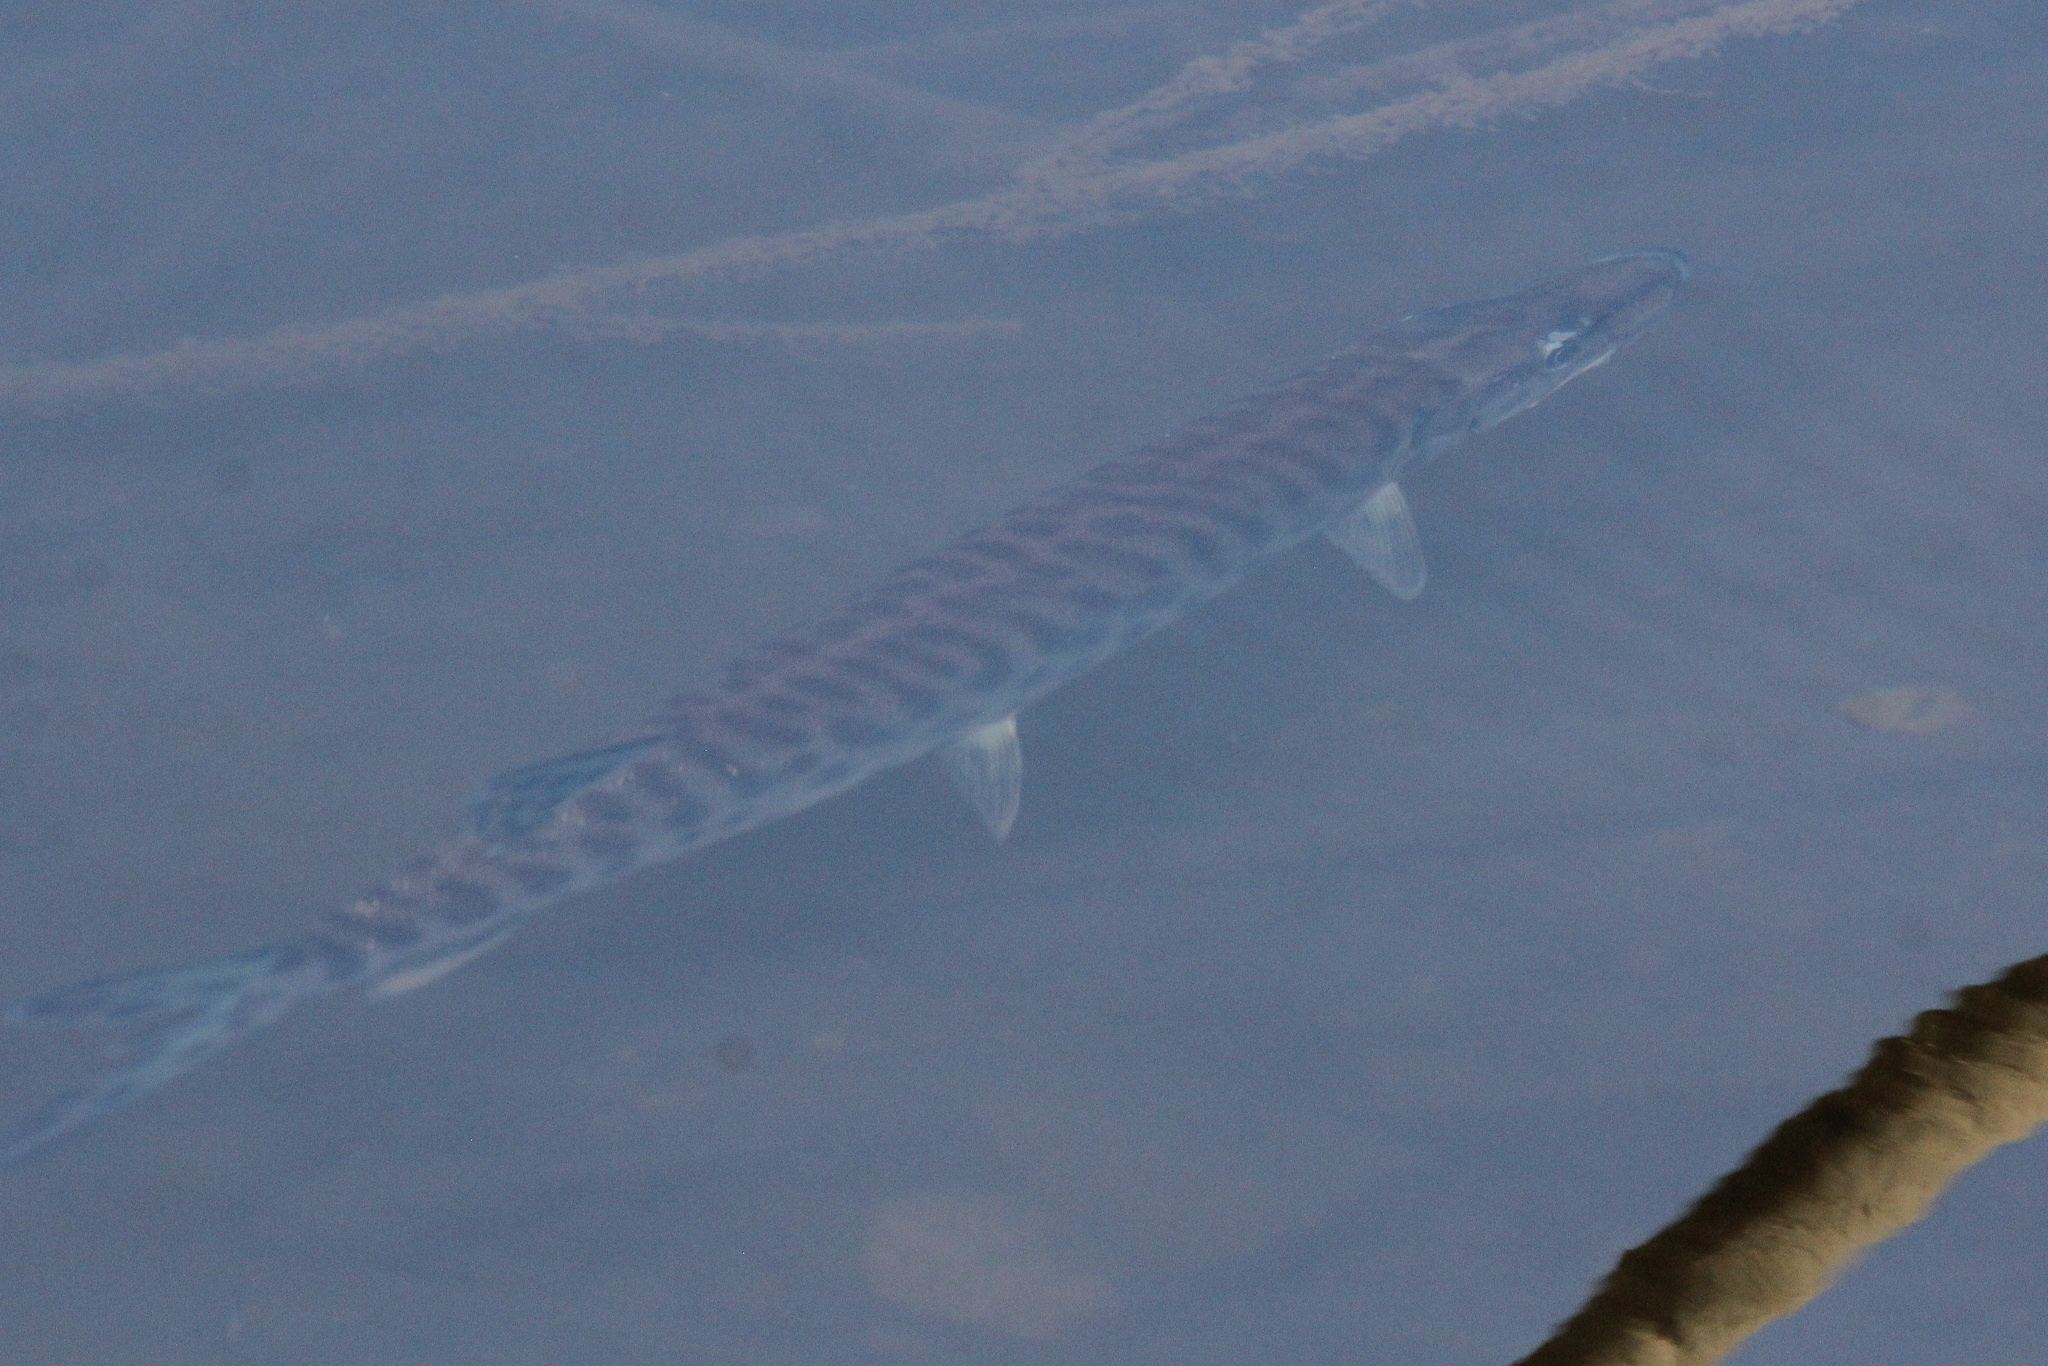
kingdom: Animalia
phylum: Chordata
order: Esociformes
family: Esocidae
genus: Esox
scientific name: Esox masquinongy
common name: Muskellunge
